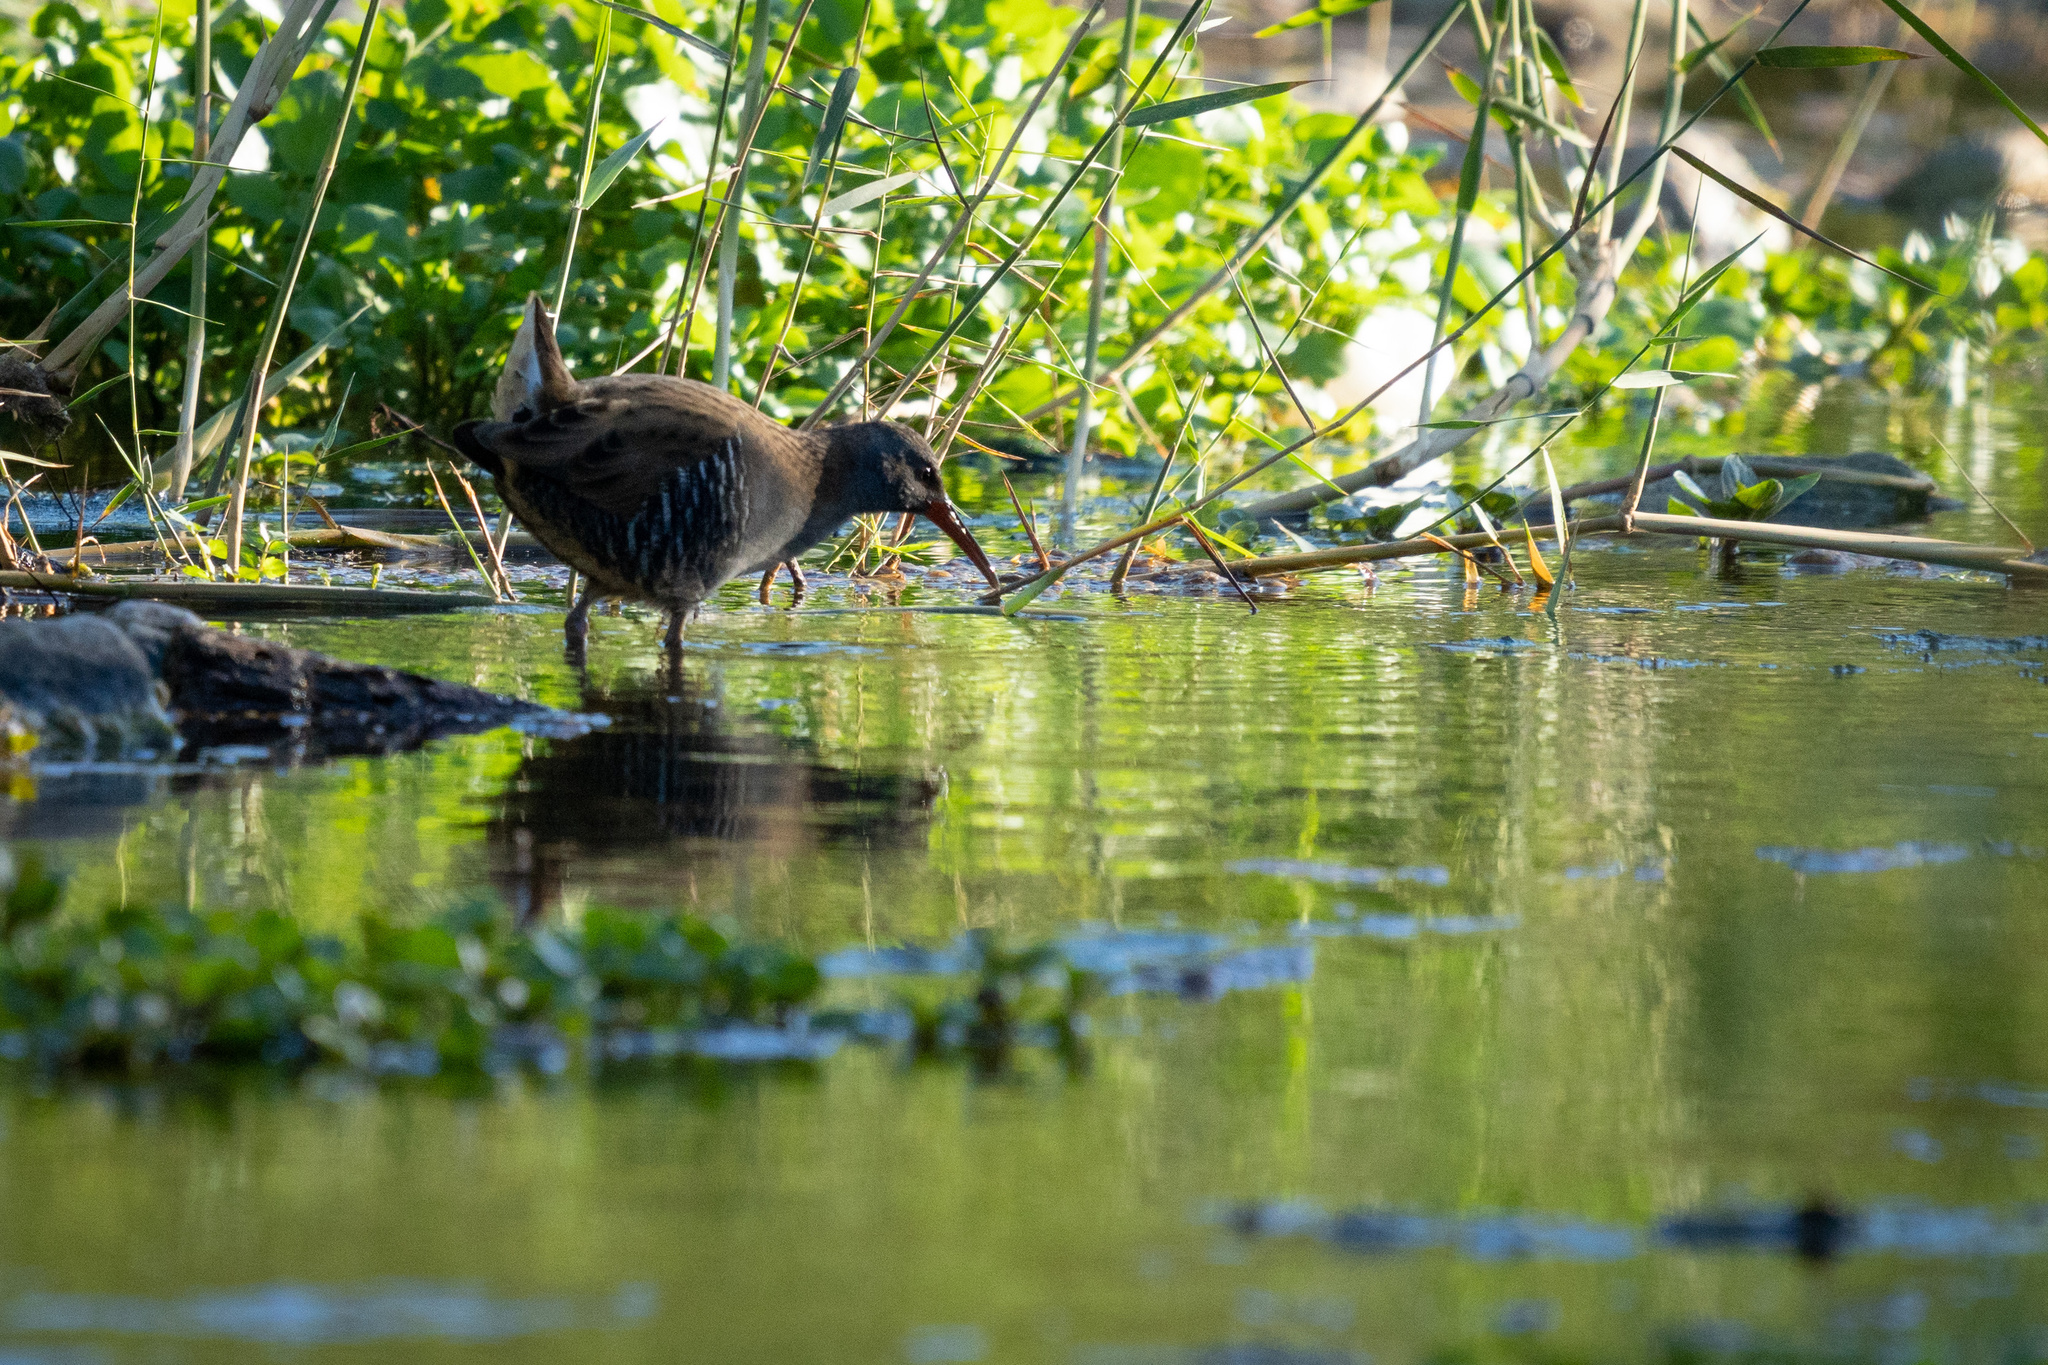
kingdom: Animalia
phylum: Chordata
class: Aves
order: Gruiformes
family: Rallidae
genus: Rallus
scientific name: Rallus aquaticus
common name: Water rail
